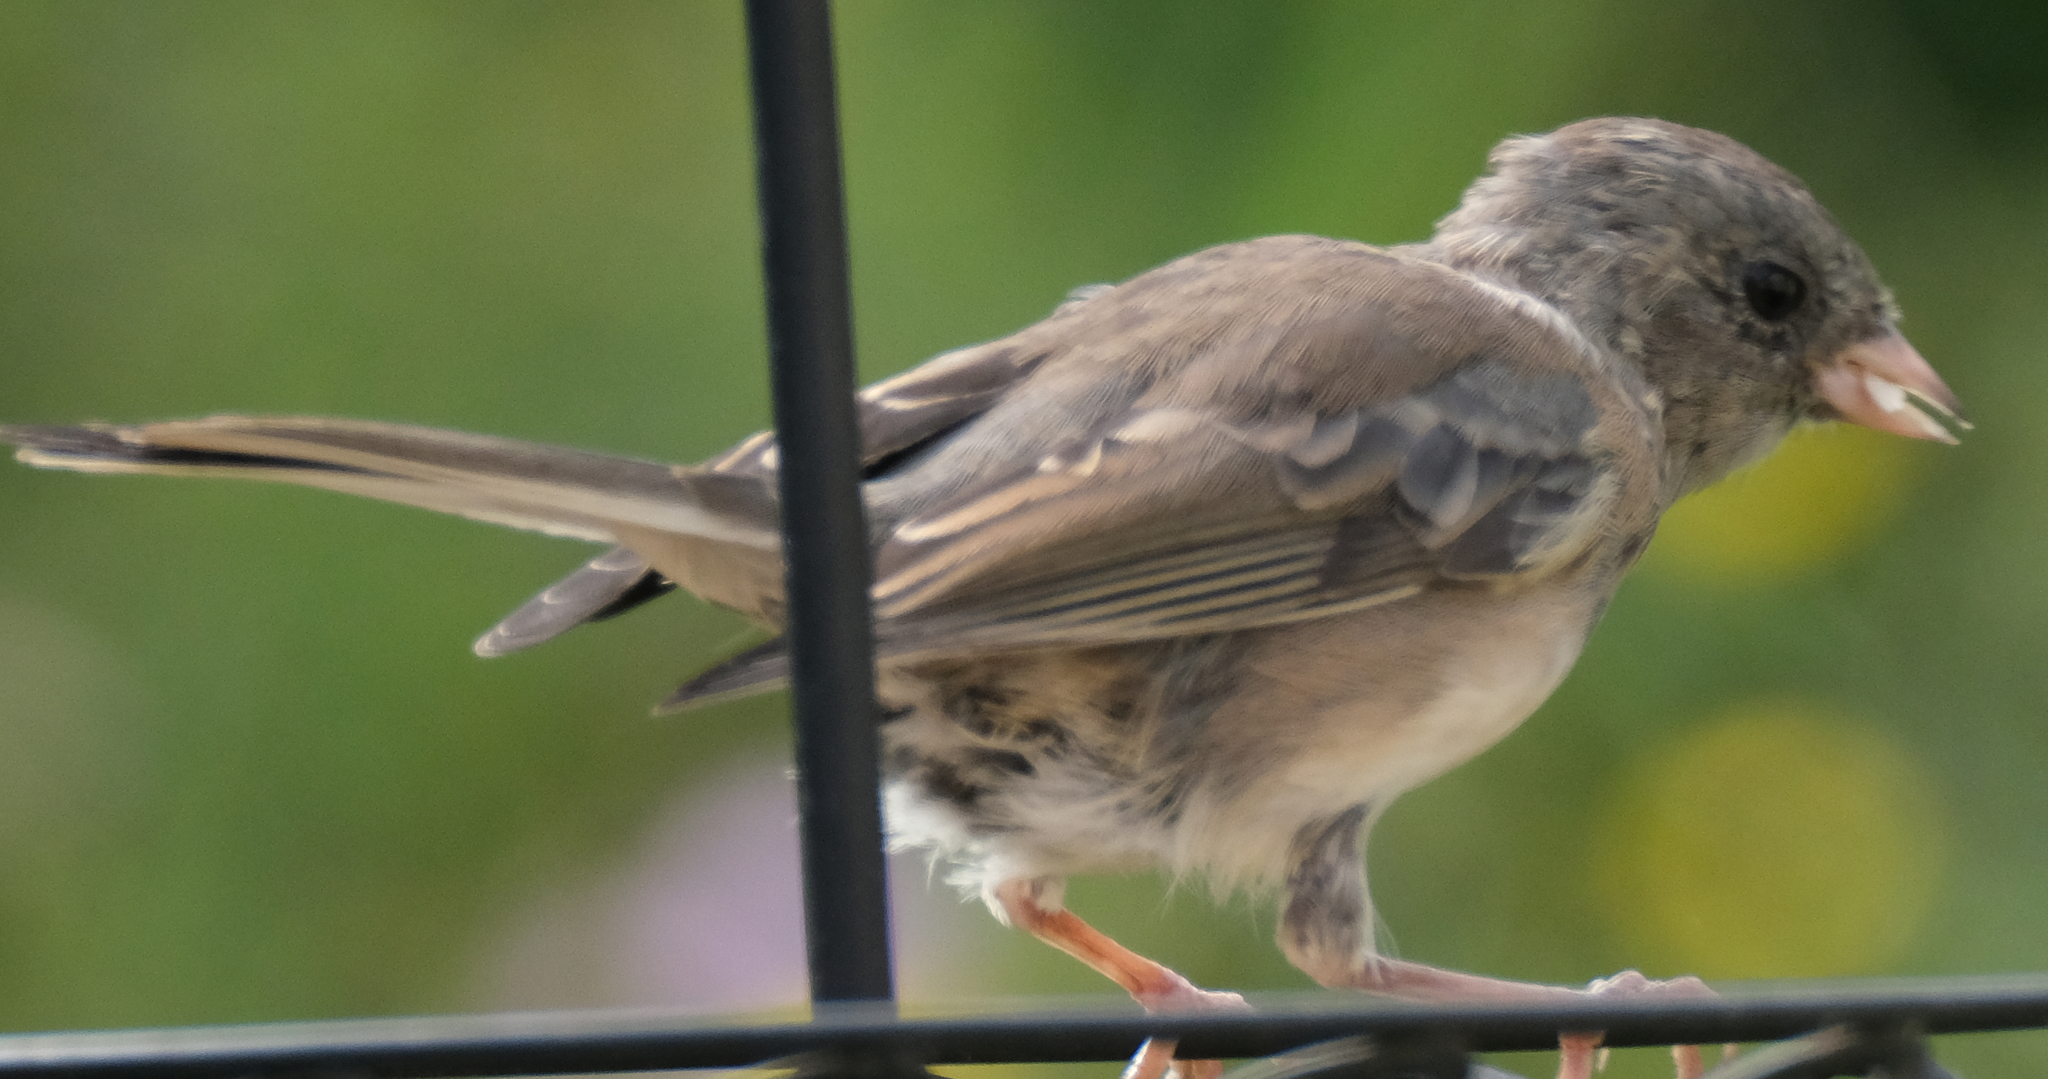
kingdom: Animalia
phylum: Chordata
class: Aves
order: Passeriformes
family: Passerellidae
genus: Junco
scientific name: Junco hyemalis
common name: Dark-eyed junco
